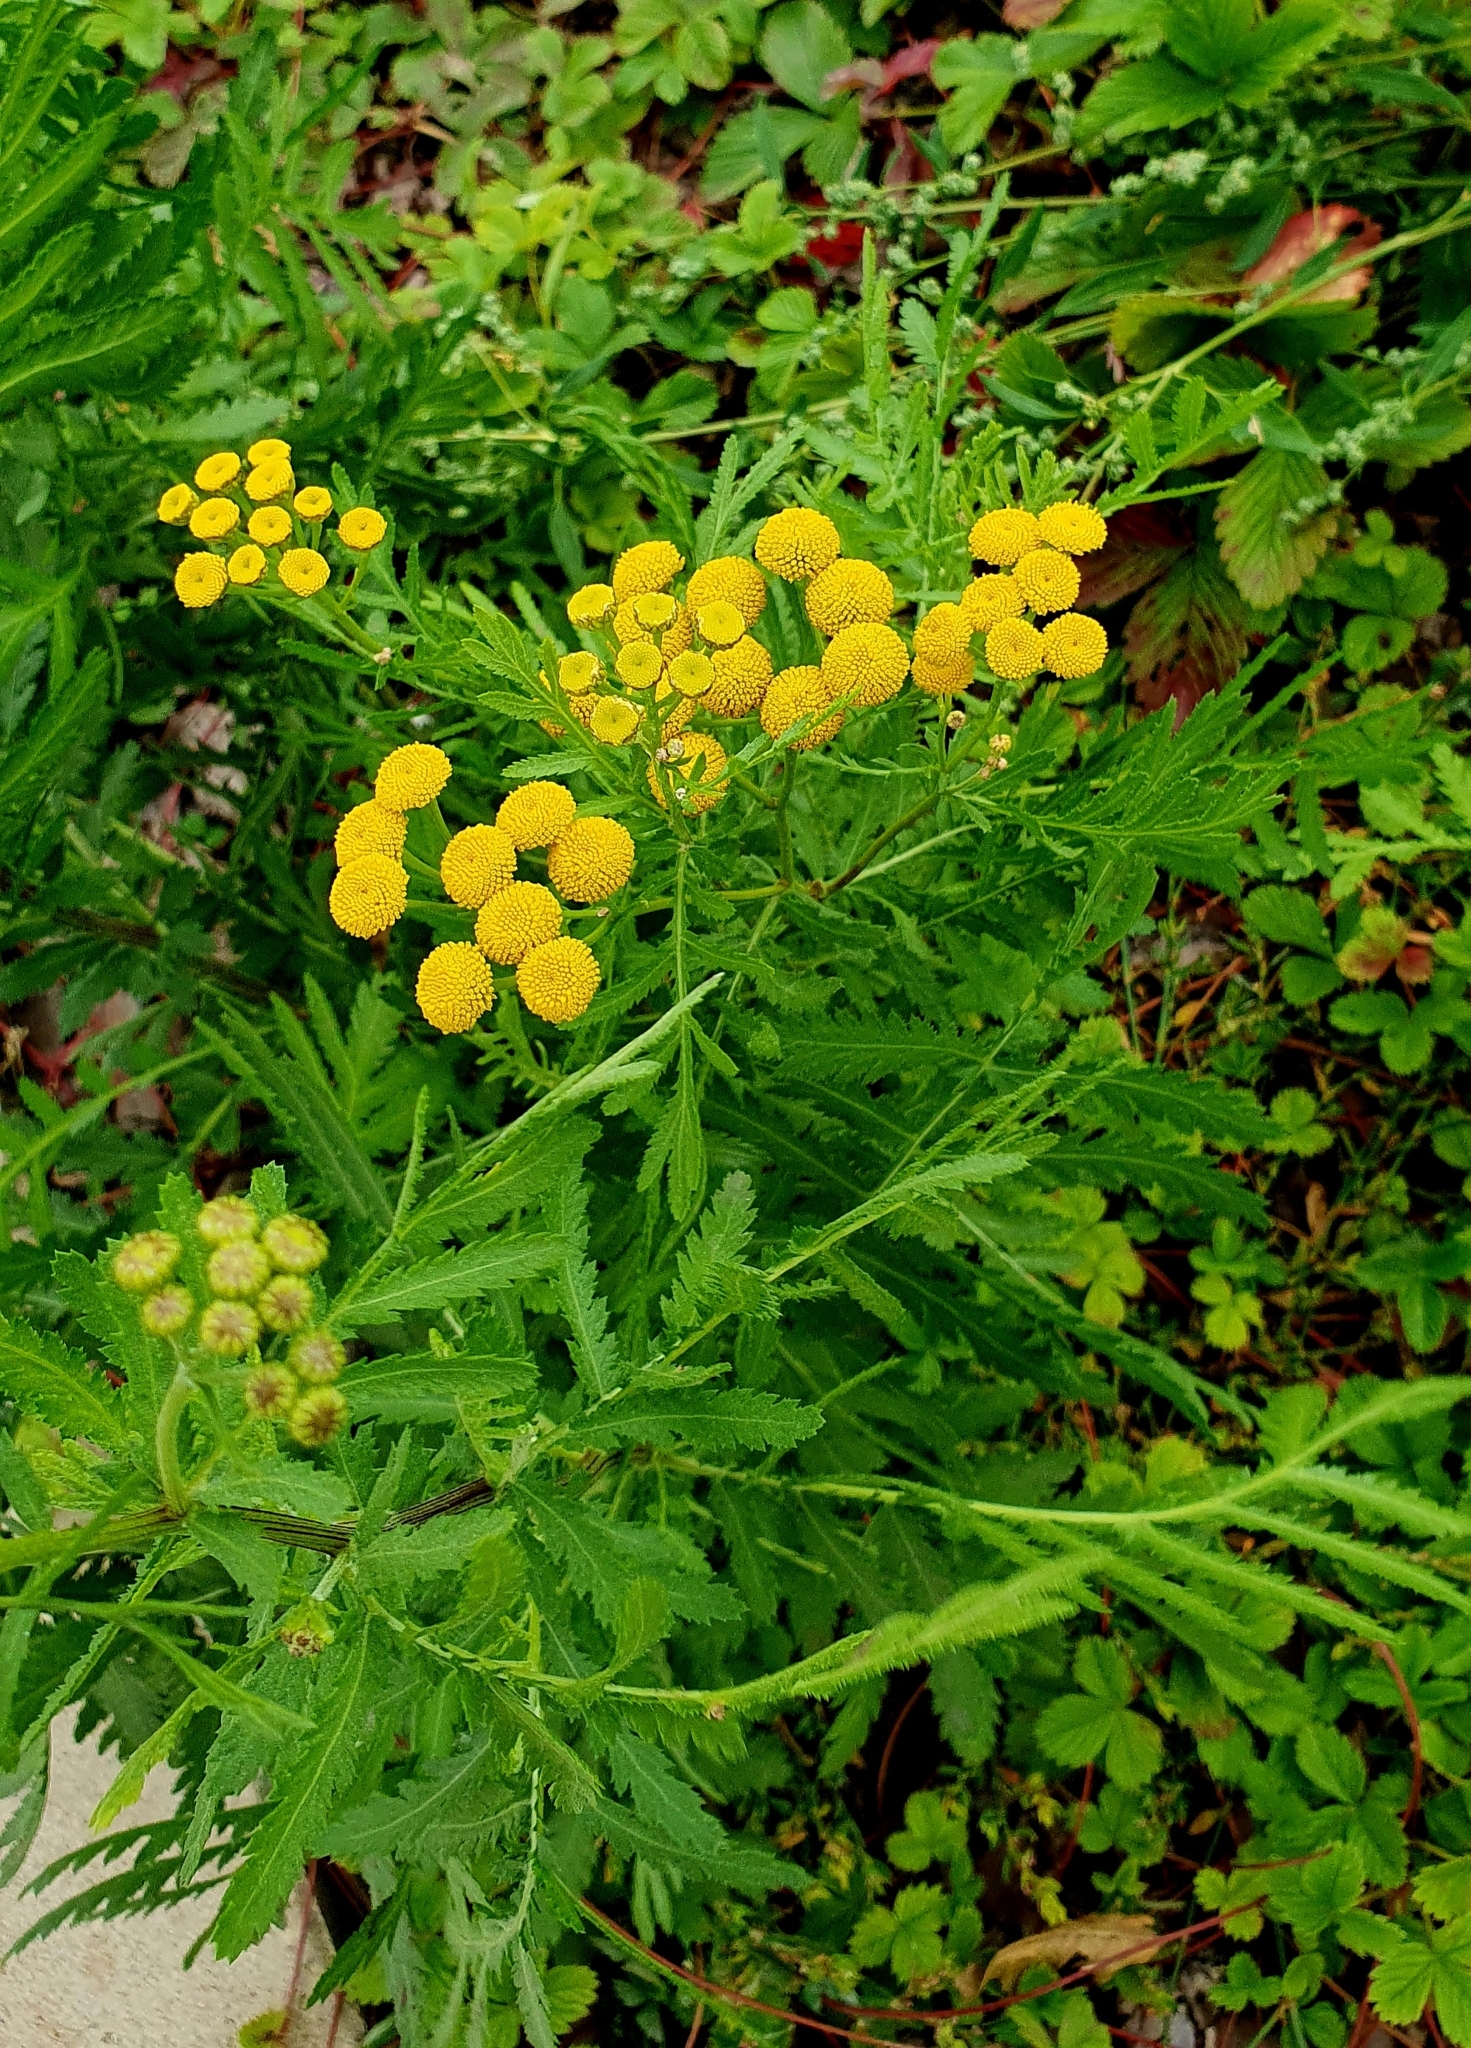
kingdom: Plantae
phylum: Tracheophyta
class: Magnoliopsida
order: Asterales
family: Asteraceae
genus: Tanacetum
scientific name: Tanacetum vulgare
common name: Common tansy
